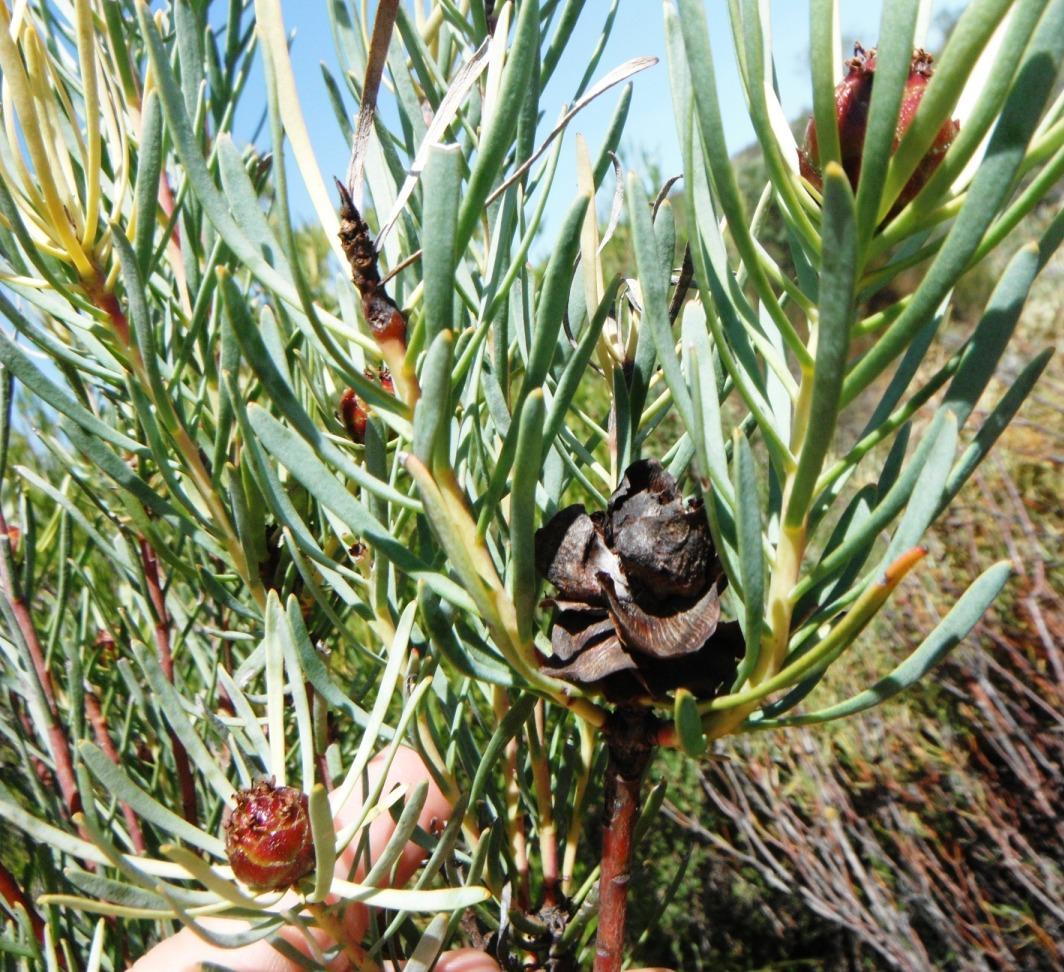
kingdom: Plantae
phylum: Tracheophyta
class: Magnoliopsida
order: Proteales
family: Proteaceae
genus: Leucadendron
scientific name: Leucadendron meyerianum
